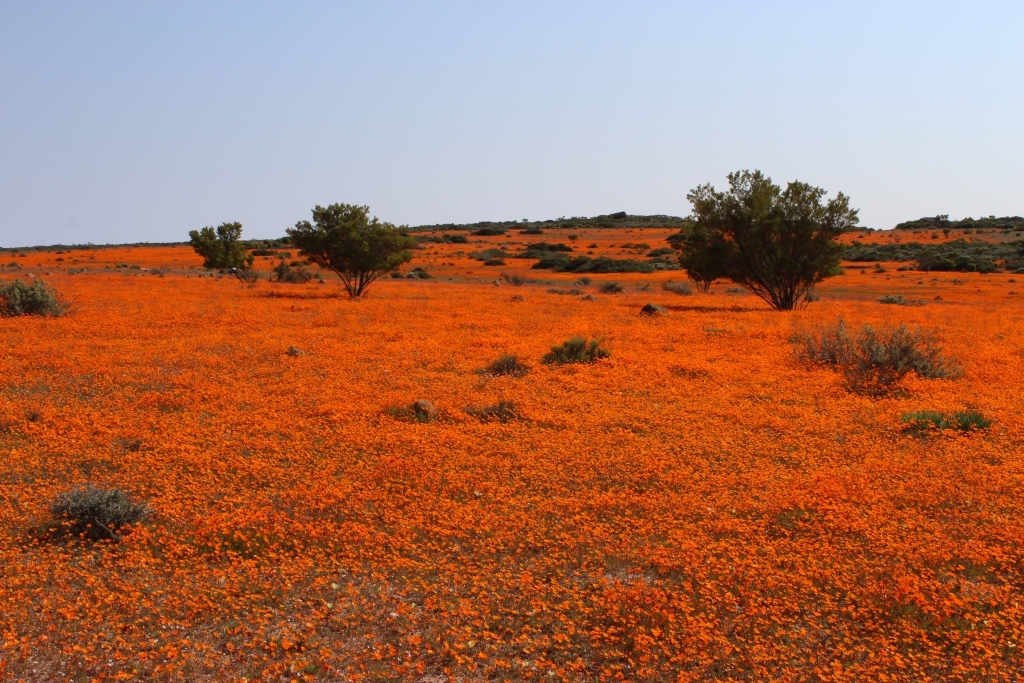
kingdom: Plantae
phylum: Tracheophyta
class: Magnoliopsida
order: Asterales
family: Asteraceae
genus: Dimorphotheca
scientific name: Dimorphotheca sinuata
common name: Glandular cape marigold
